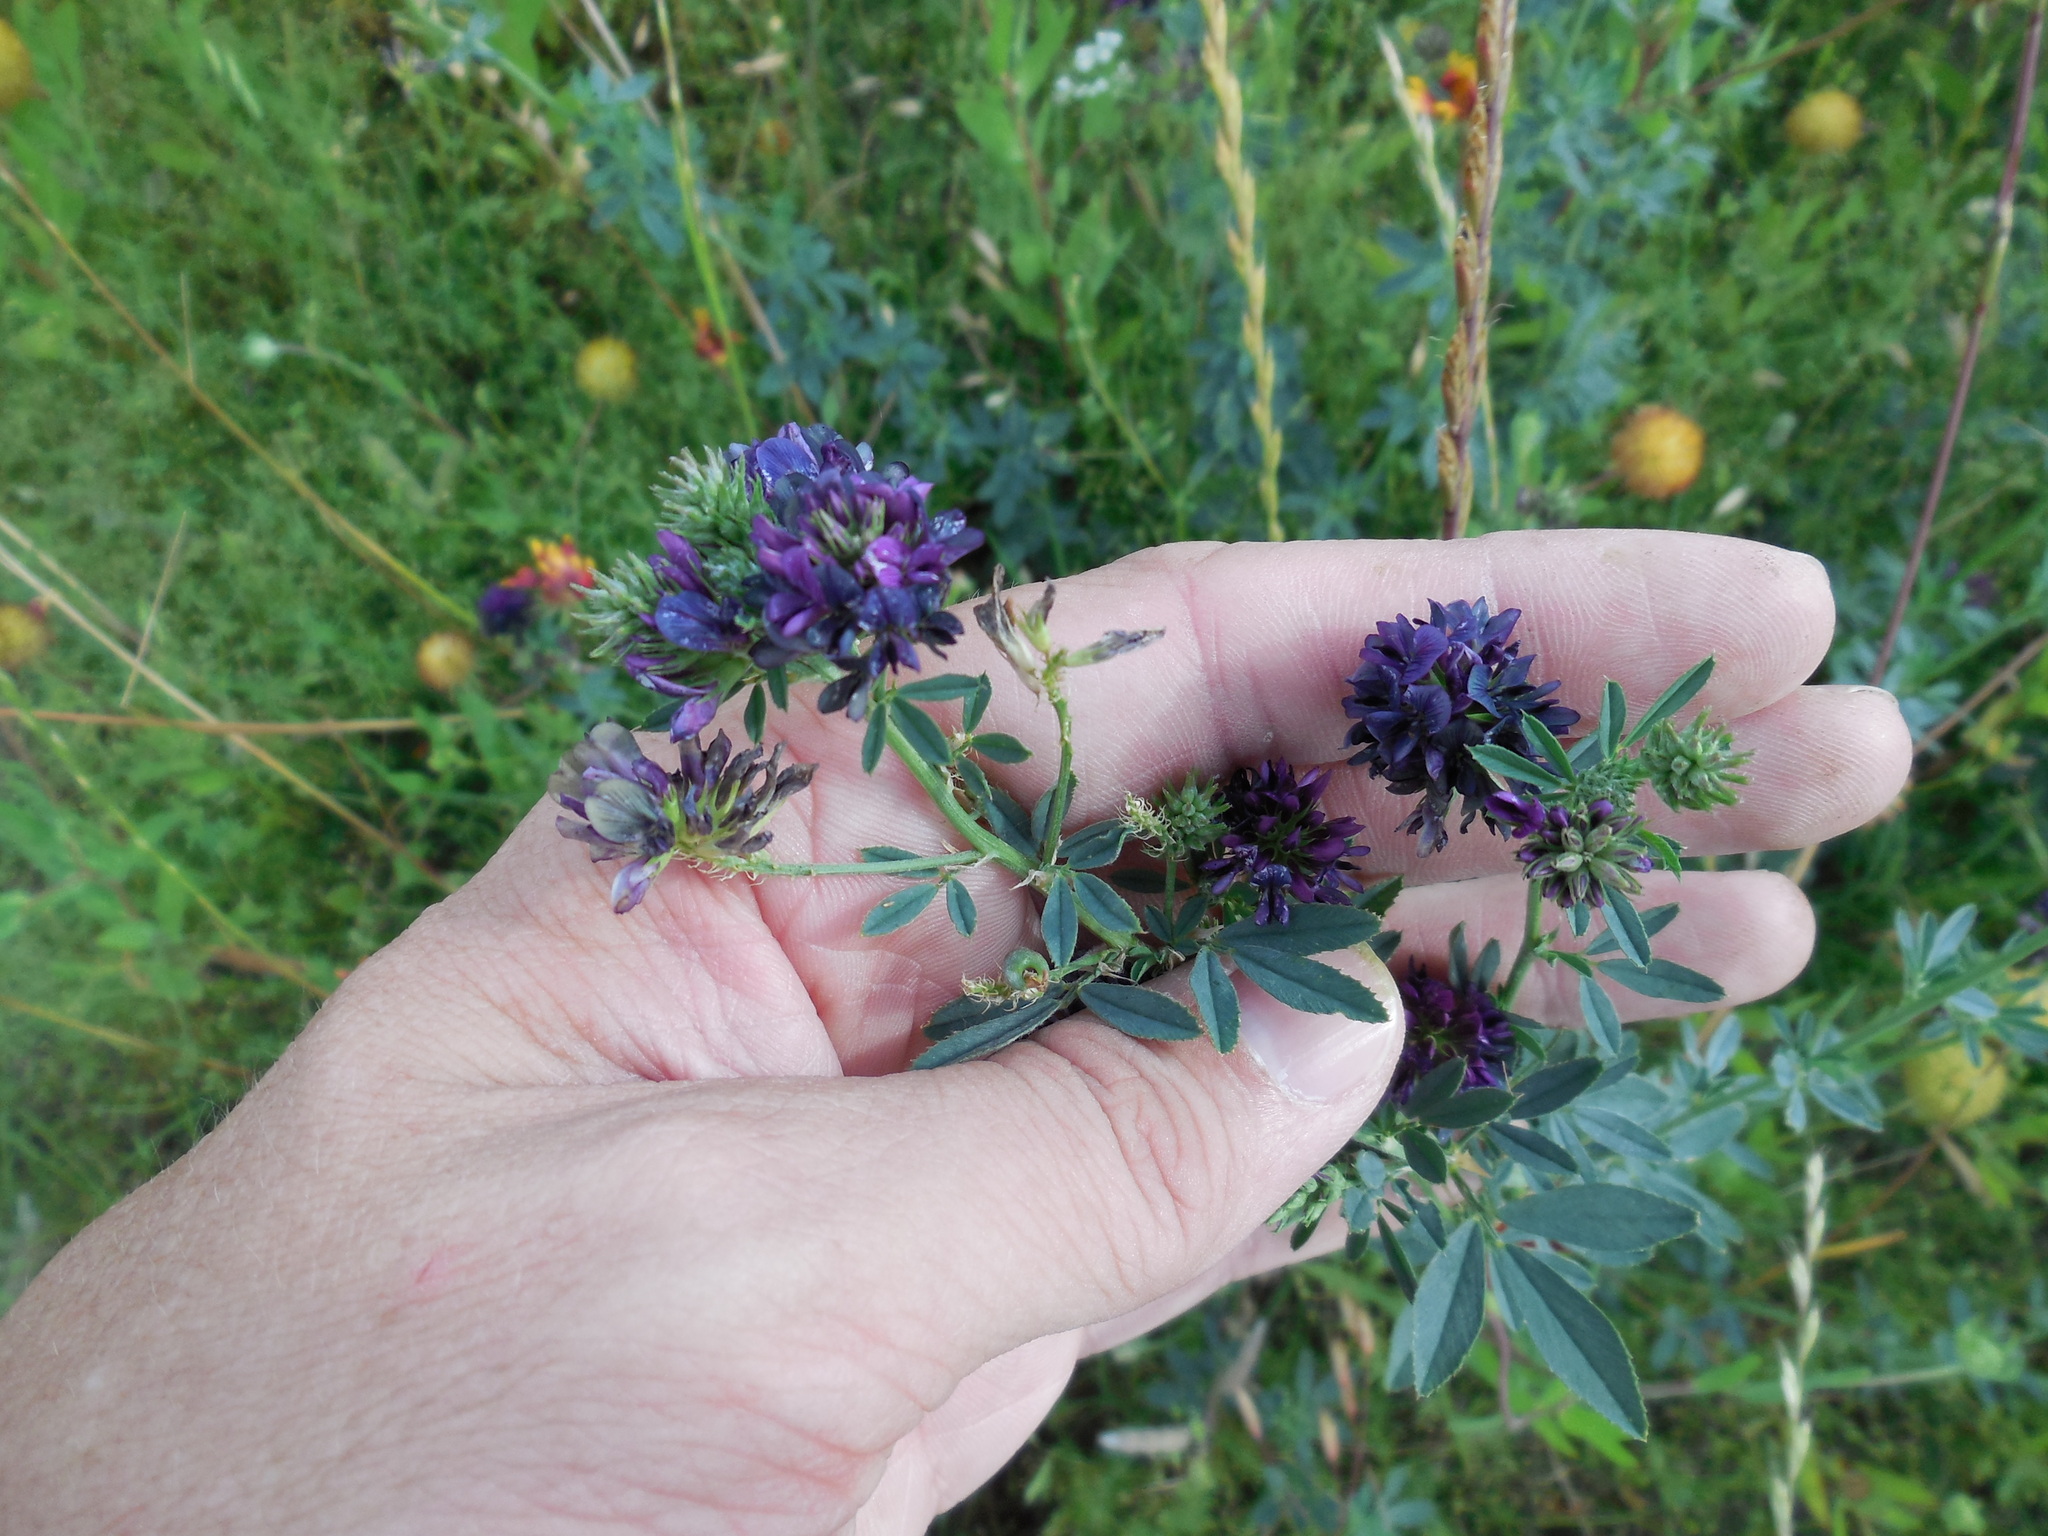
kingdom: Plantae
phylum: Tracheophyta
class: Magnoliopsida
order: Fabales
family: Fabaceae
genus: Medicago
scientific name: Medicago sativa
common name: Alfalfa
